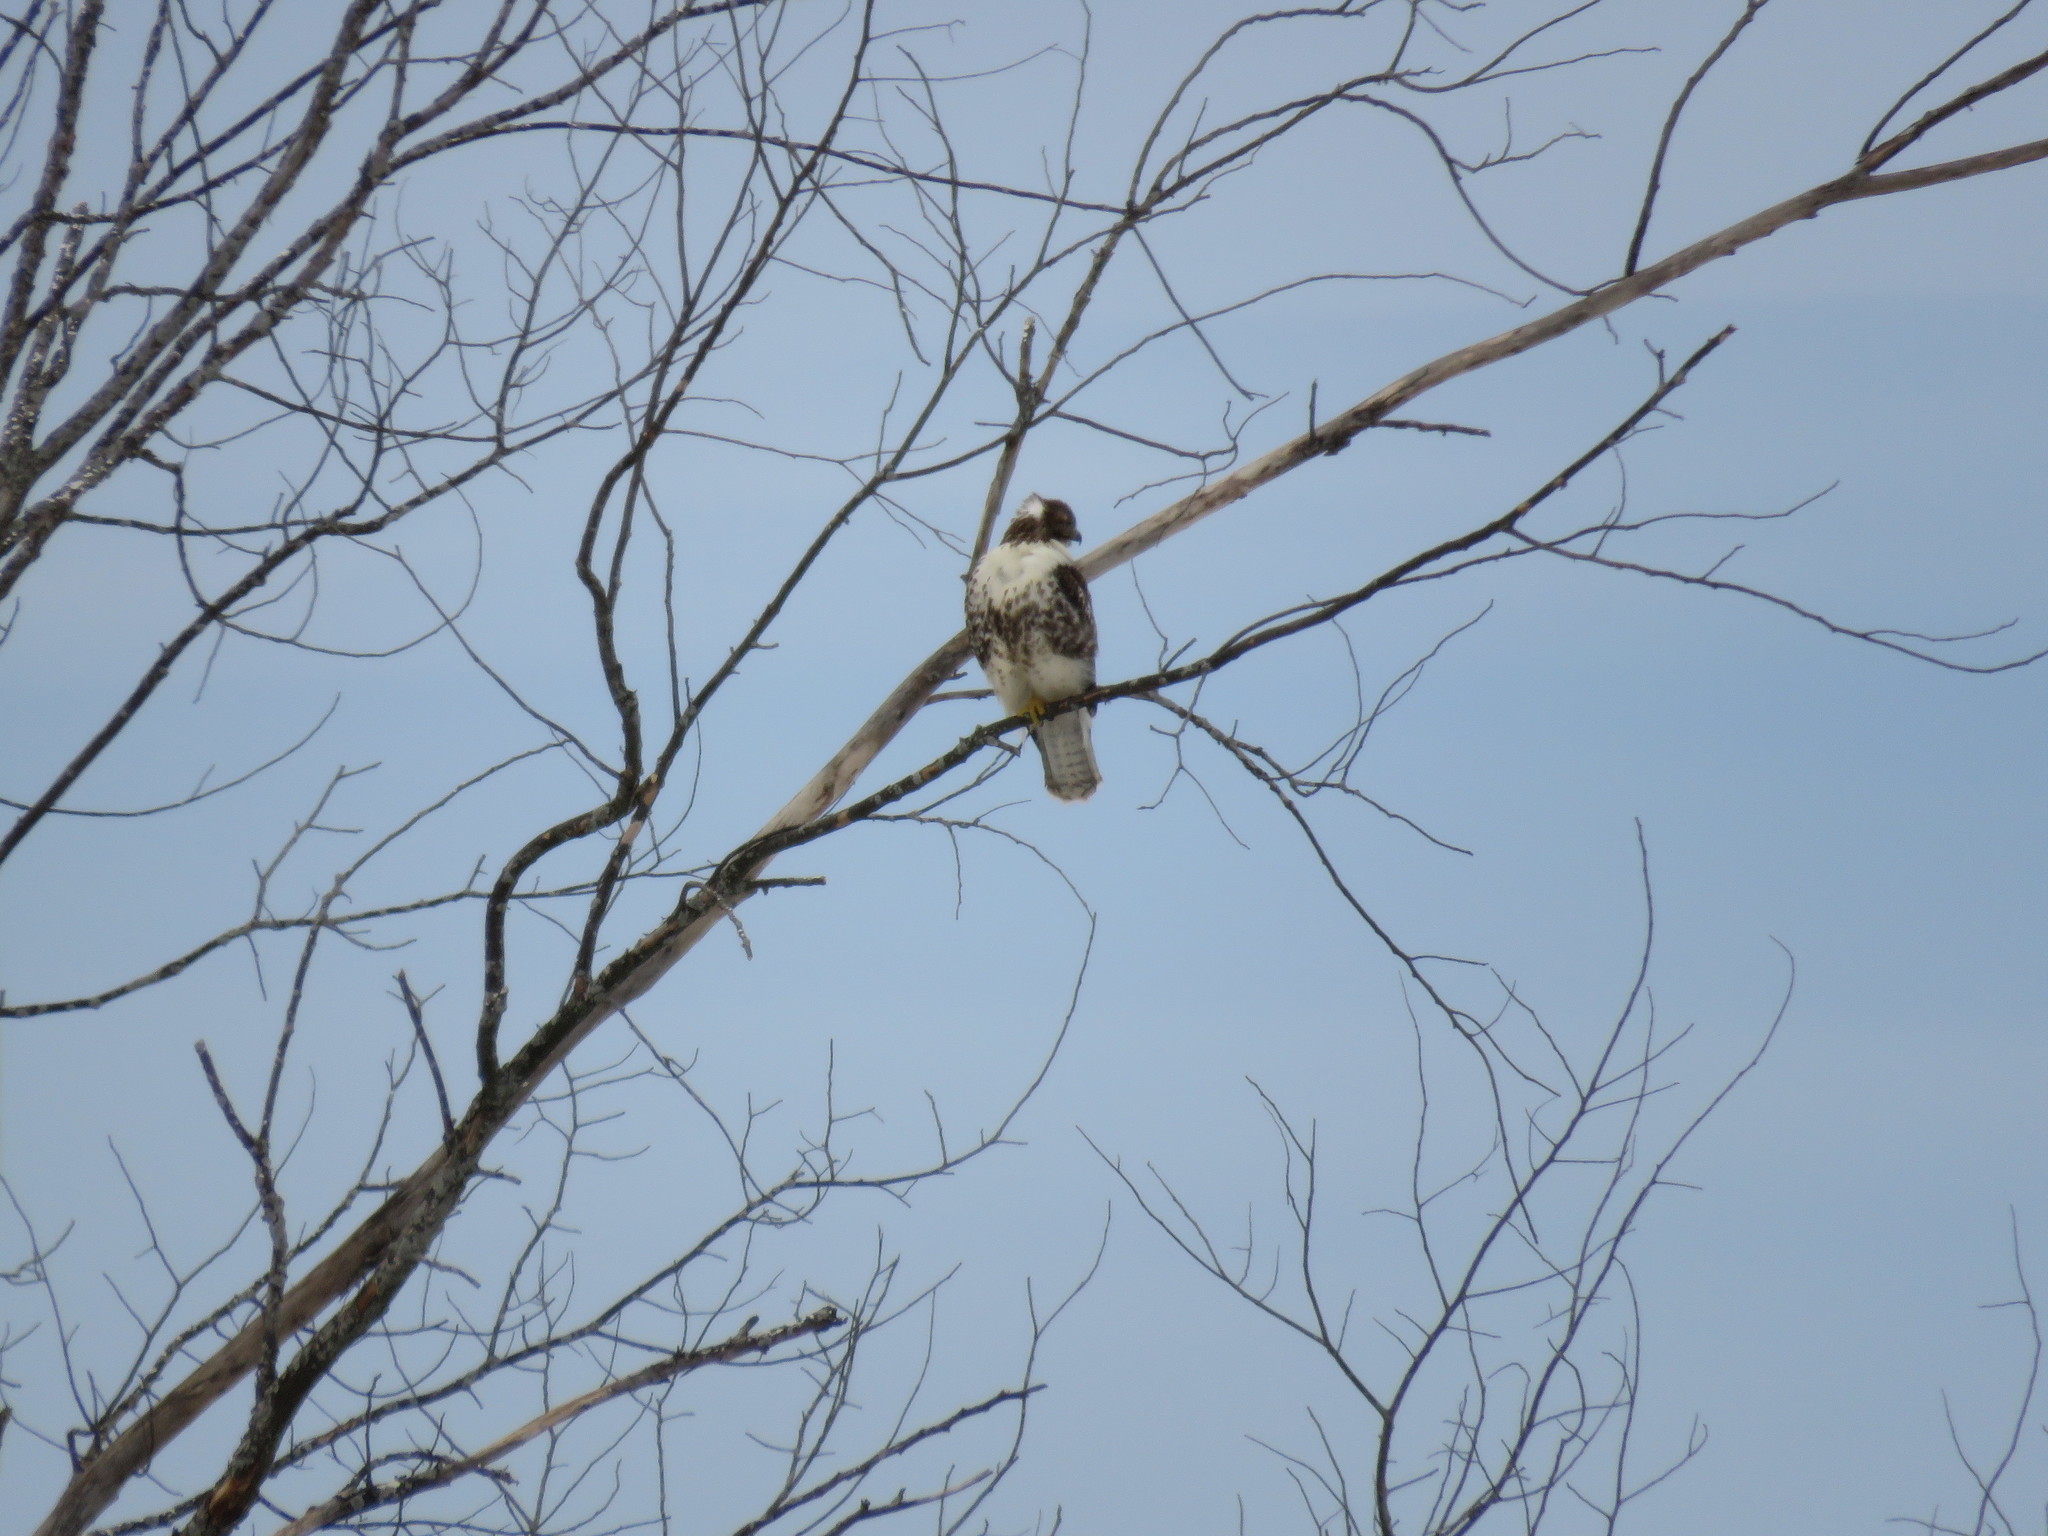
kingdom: Animalia
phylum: Chordata
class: Aves
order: Accipitriformes
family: Accipitridae
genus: Buteo
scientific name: Buteo jamaicensis
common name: Red-tailed hawk
